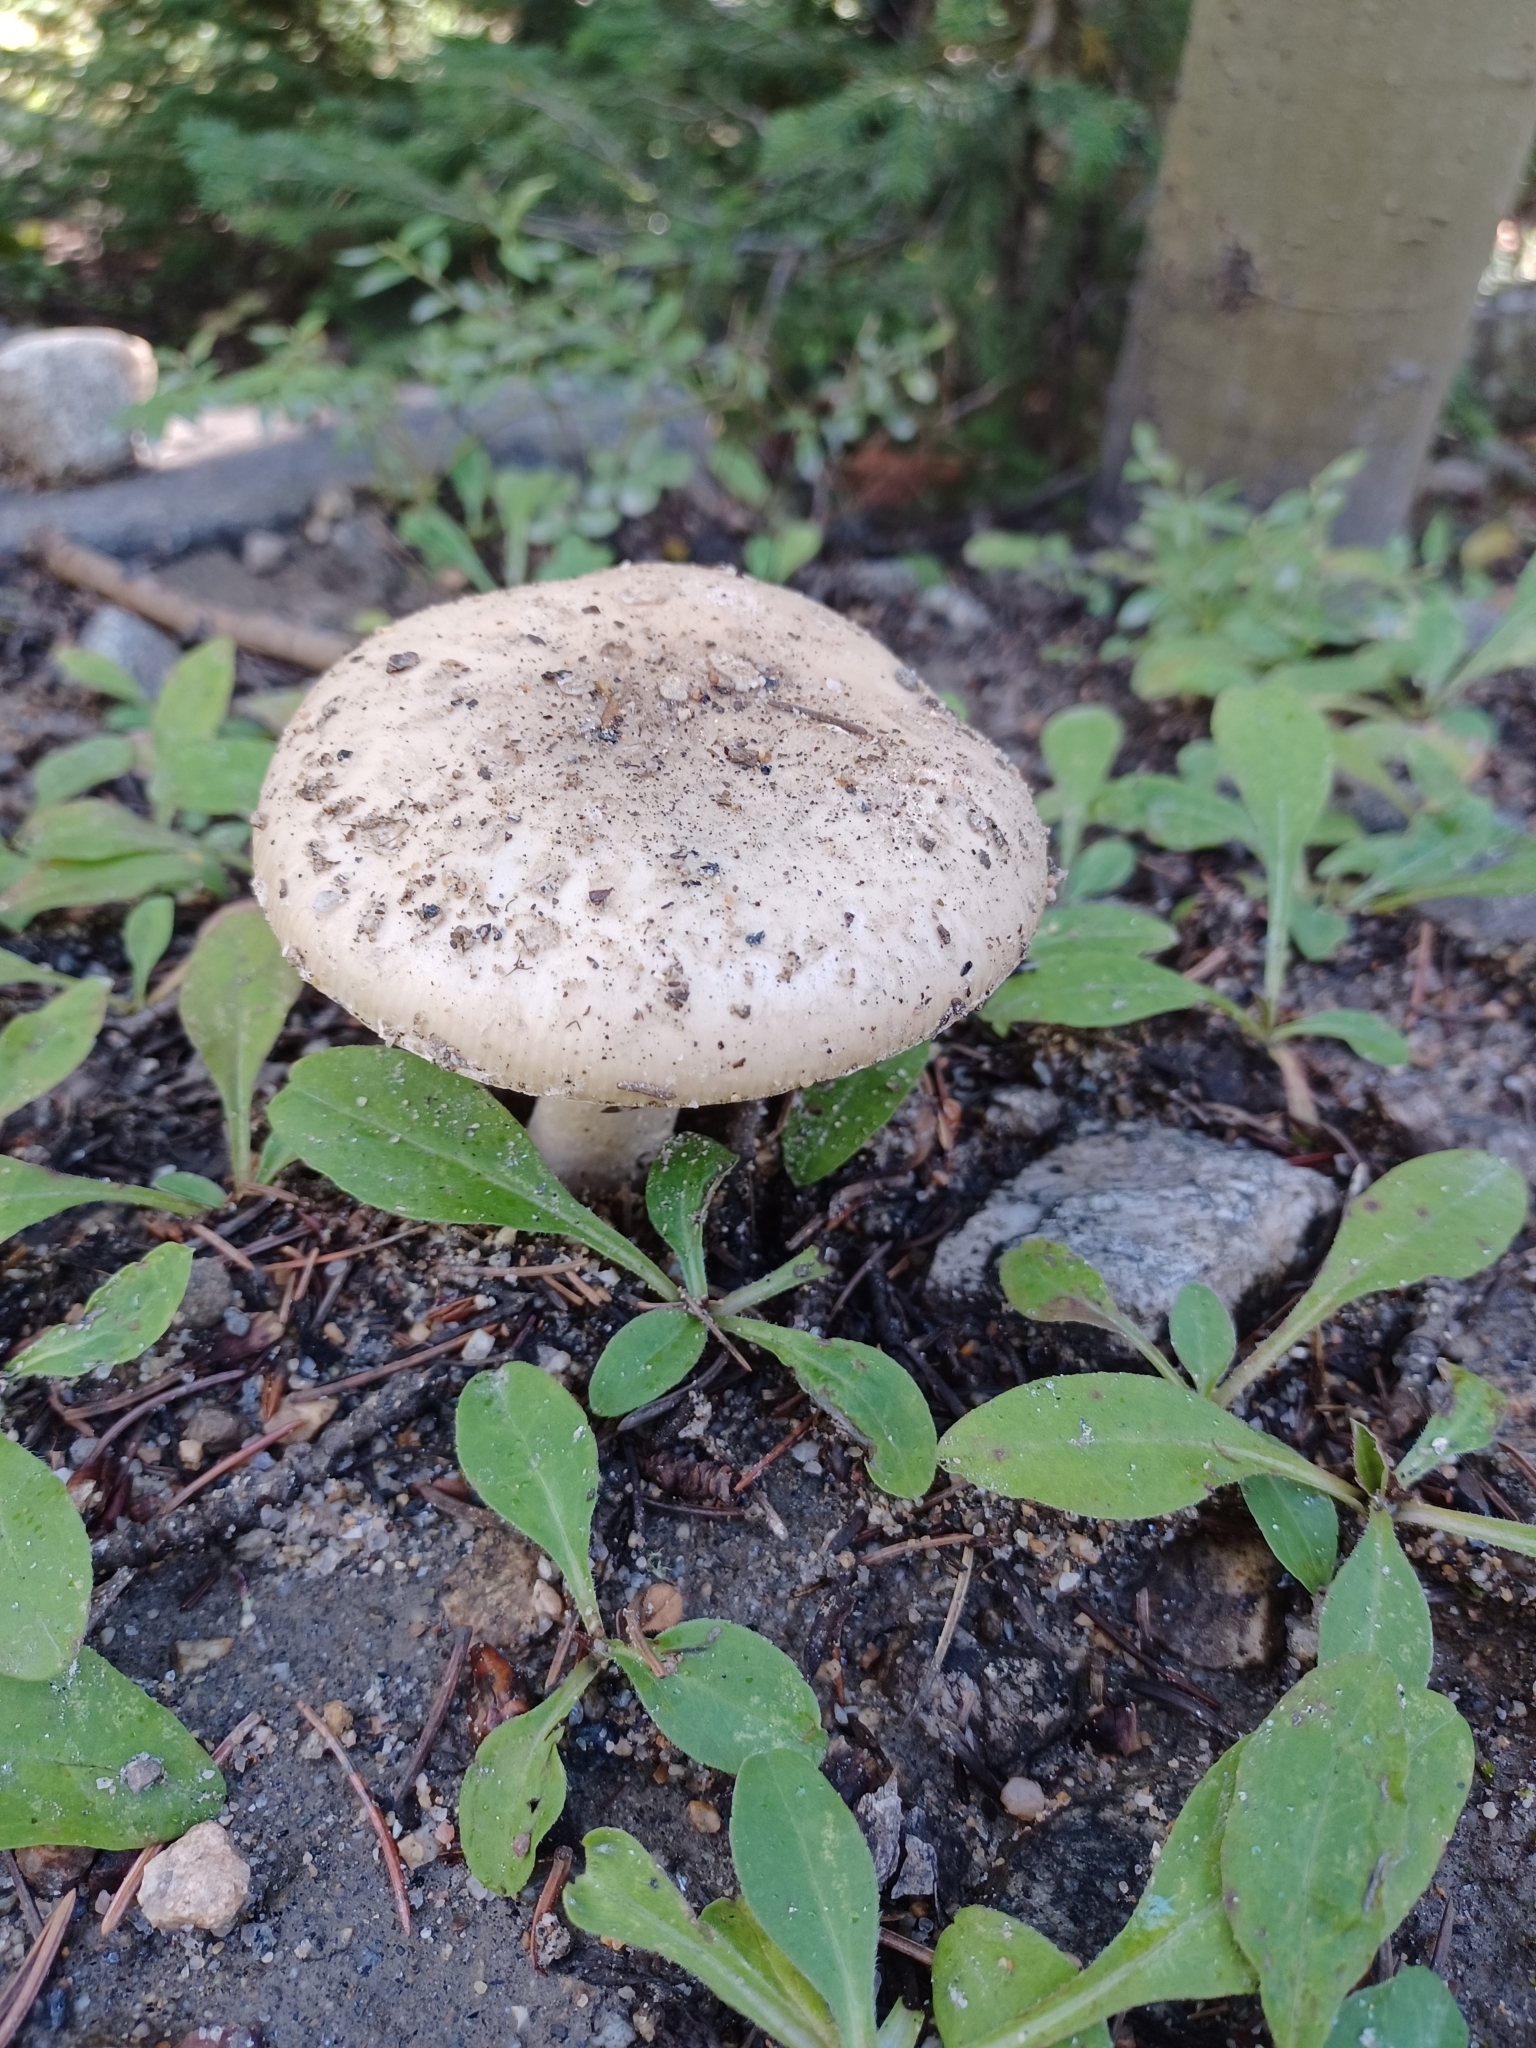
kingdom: Fungi
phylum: Basidiomycota
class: Agaricomycetes
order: Agaricales
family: Amanitaceae
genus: Amanita
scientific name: Amanita pantherina
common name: Panthercap
